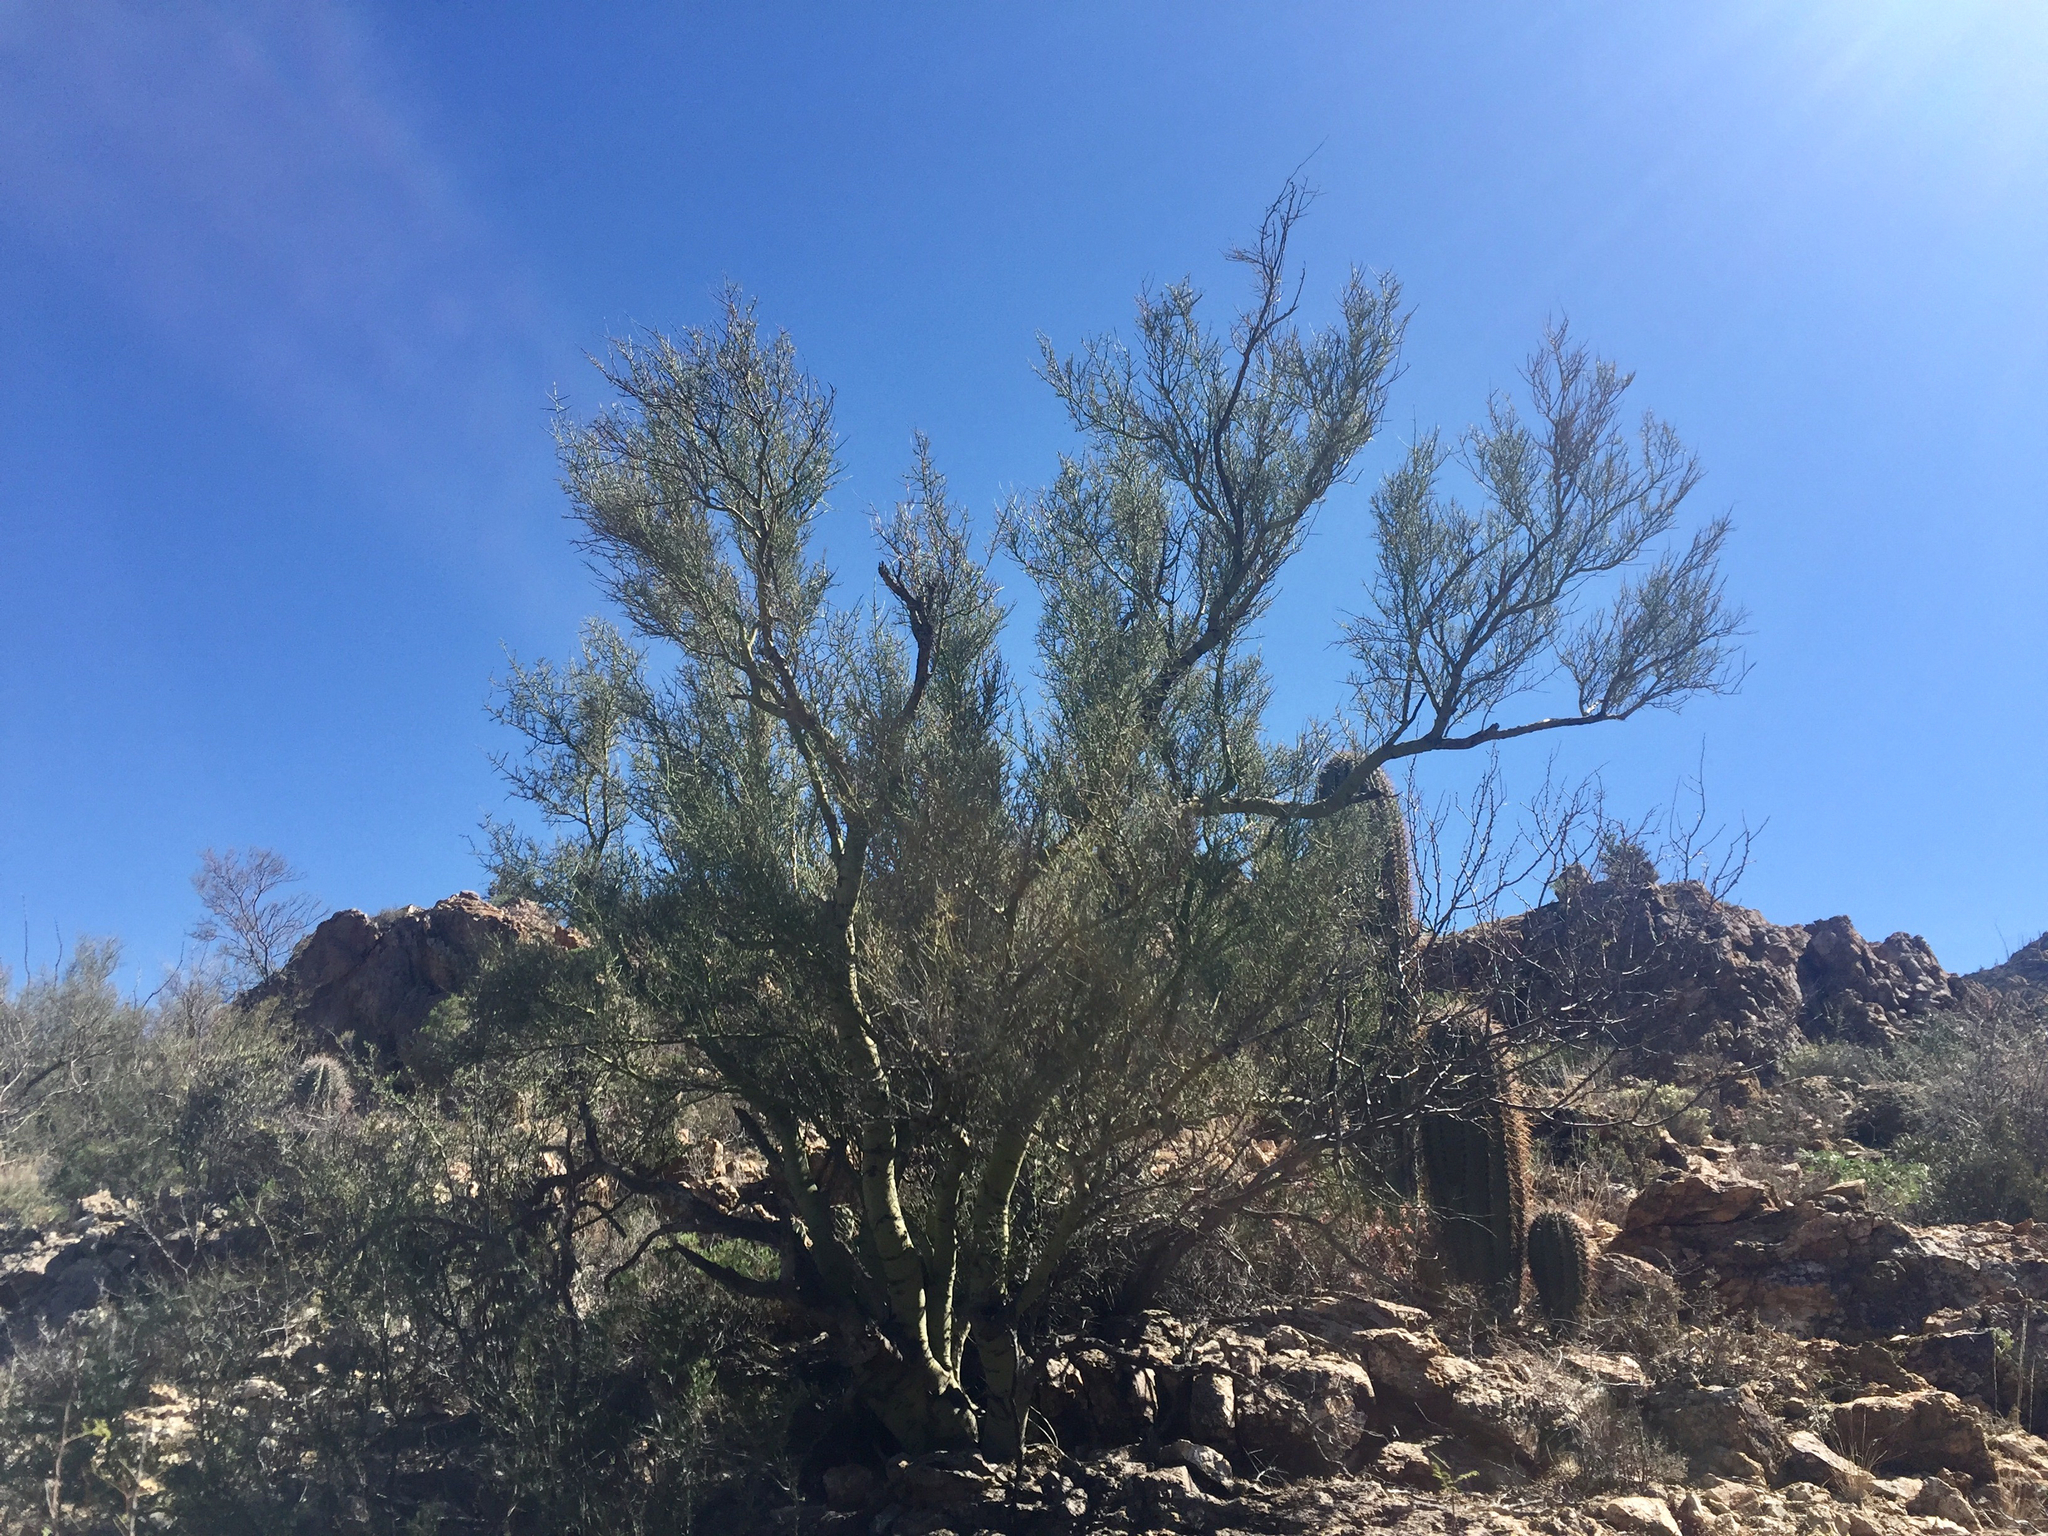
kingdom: Plantae
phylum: Tracheophyta
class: Magnoliopsida
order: Fabales
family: Fabaceae
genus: Parkinsonia
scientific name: Parkinsonia microphylla
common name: Yellow paloverde
